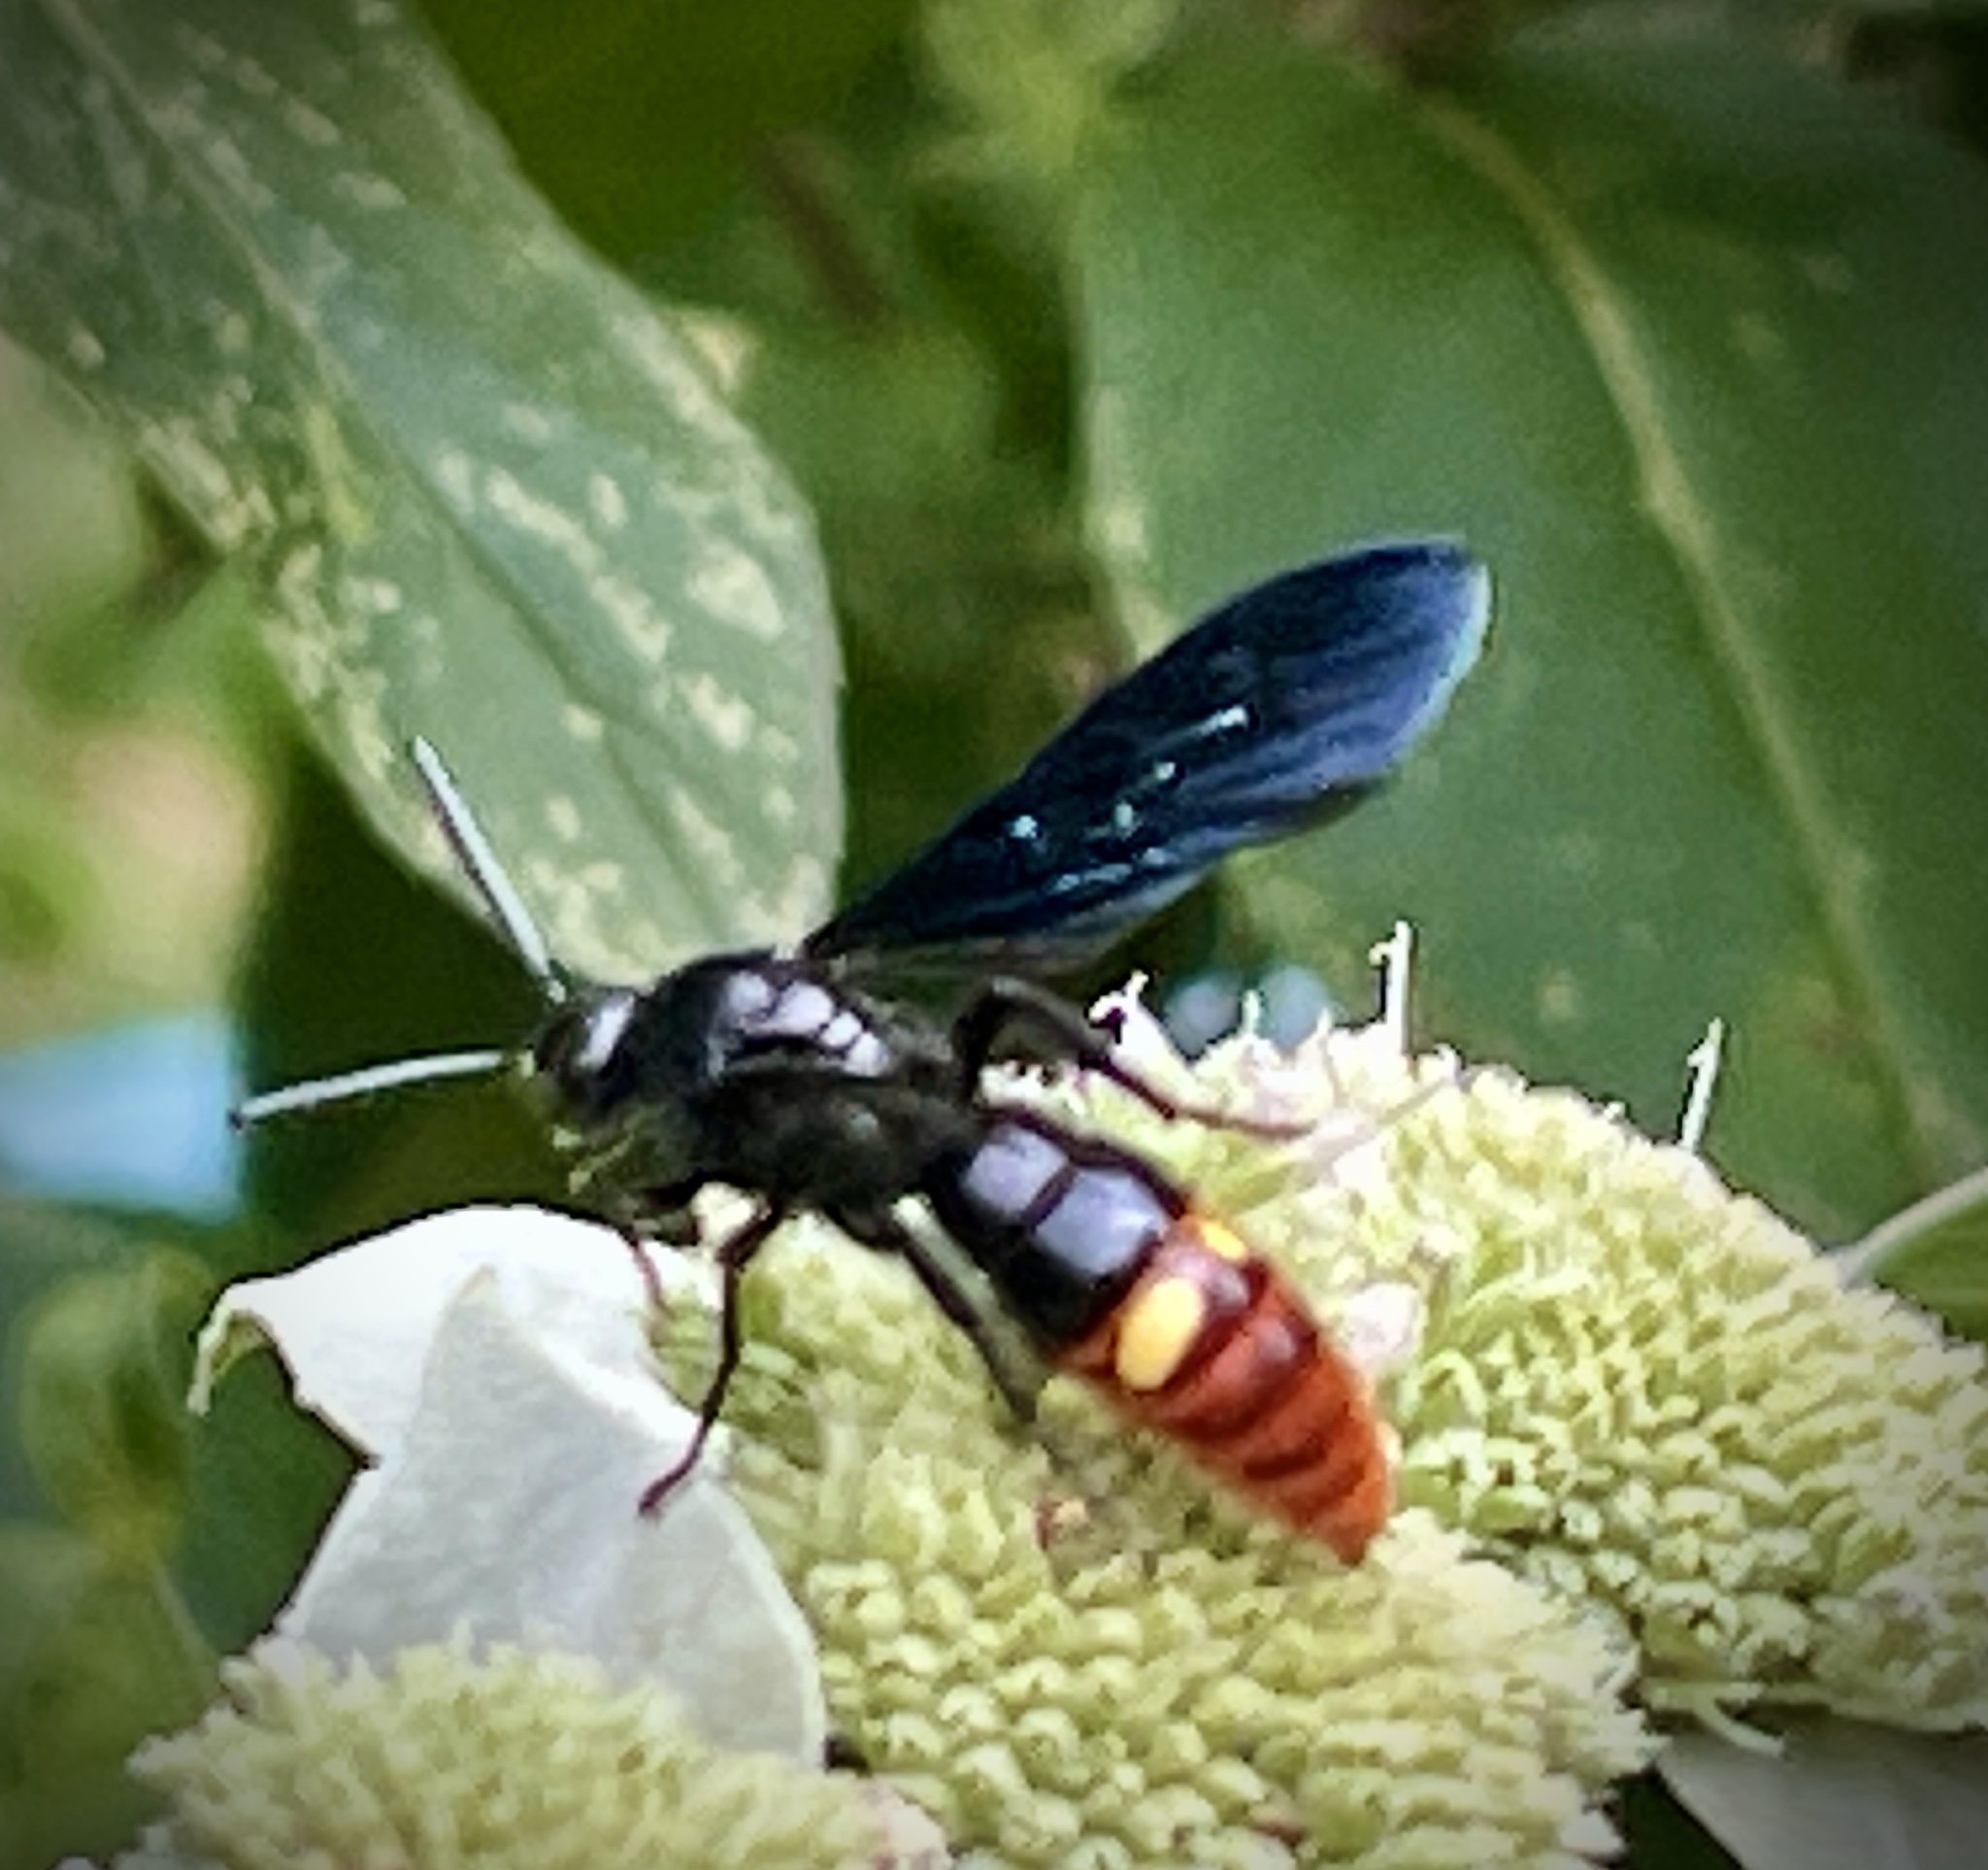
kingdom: Animalia
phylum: Arthropoda
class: Insecta
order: Hymenoptera
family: Scoliidae
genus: Scolia
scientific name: Scolia dubia
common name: Blue-winged scoliid wasp
